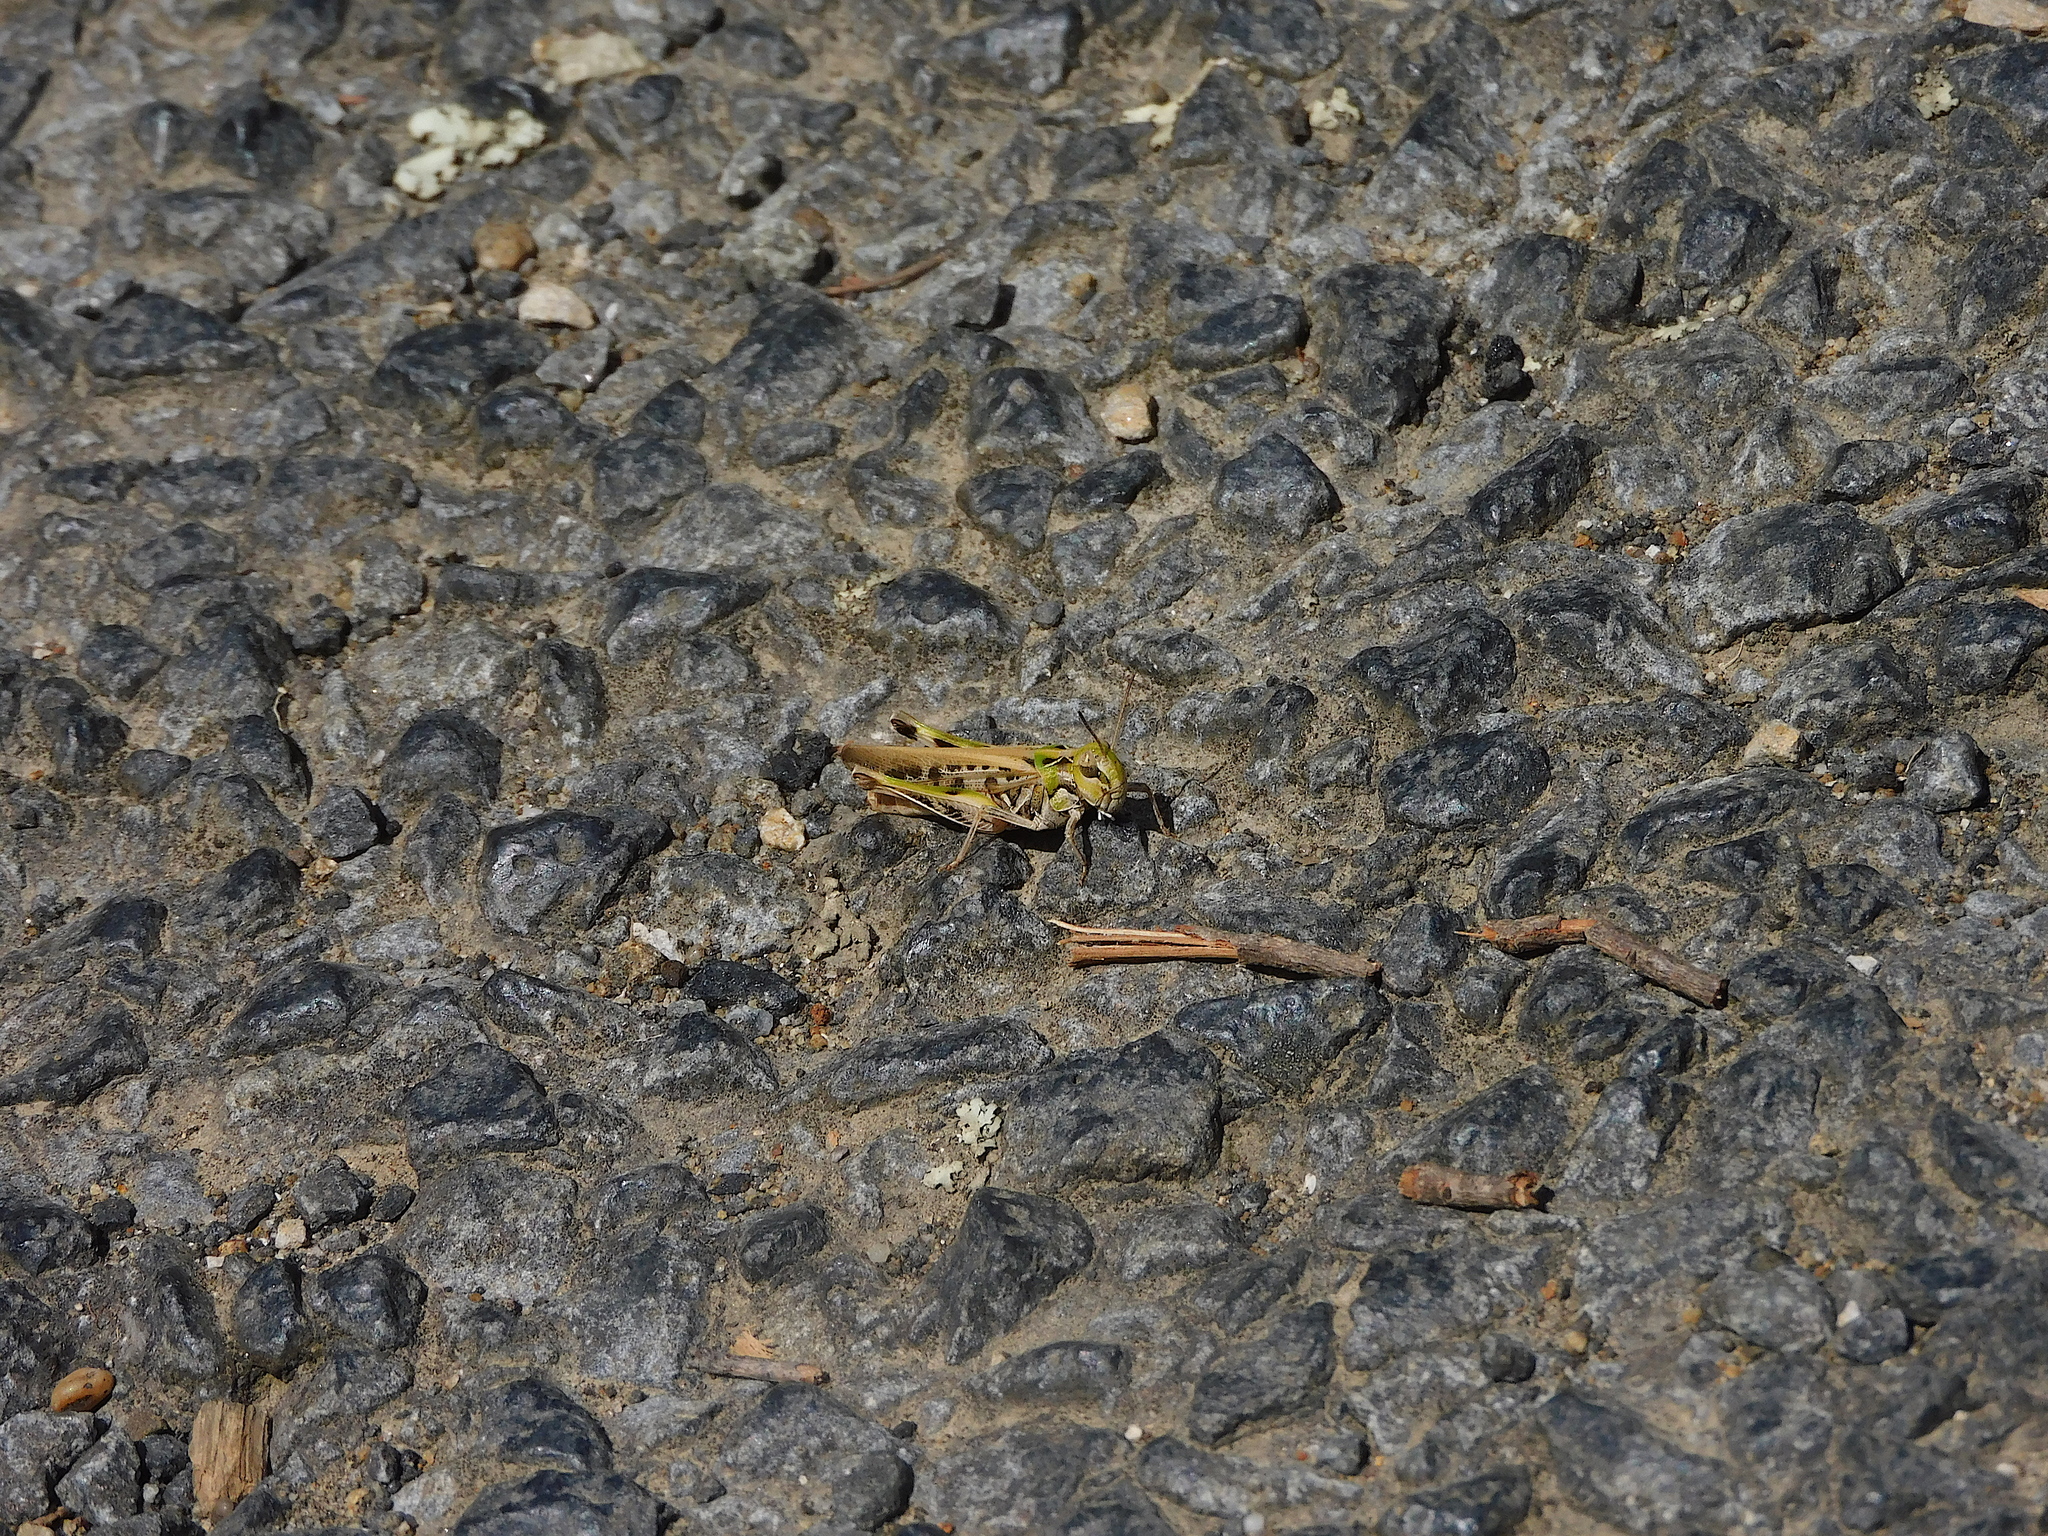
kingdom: Animalia
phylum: Arthropoda
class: Insecta
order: Orthoptera
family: Acrididae
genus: Austroicetes
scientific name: Austroicetes vulgaris
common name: Southeastern austroicetes
